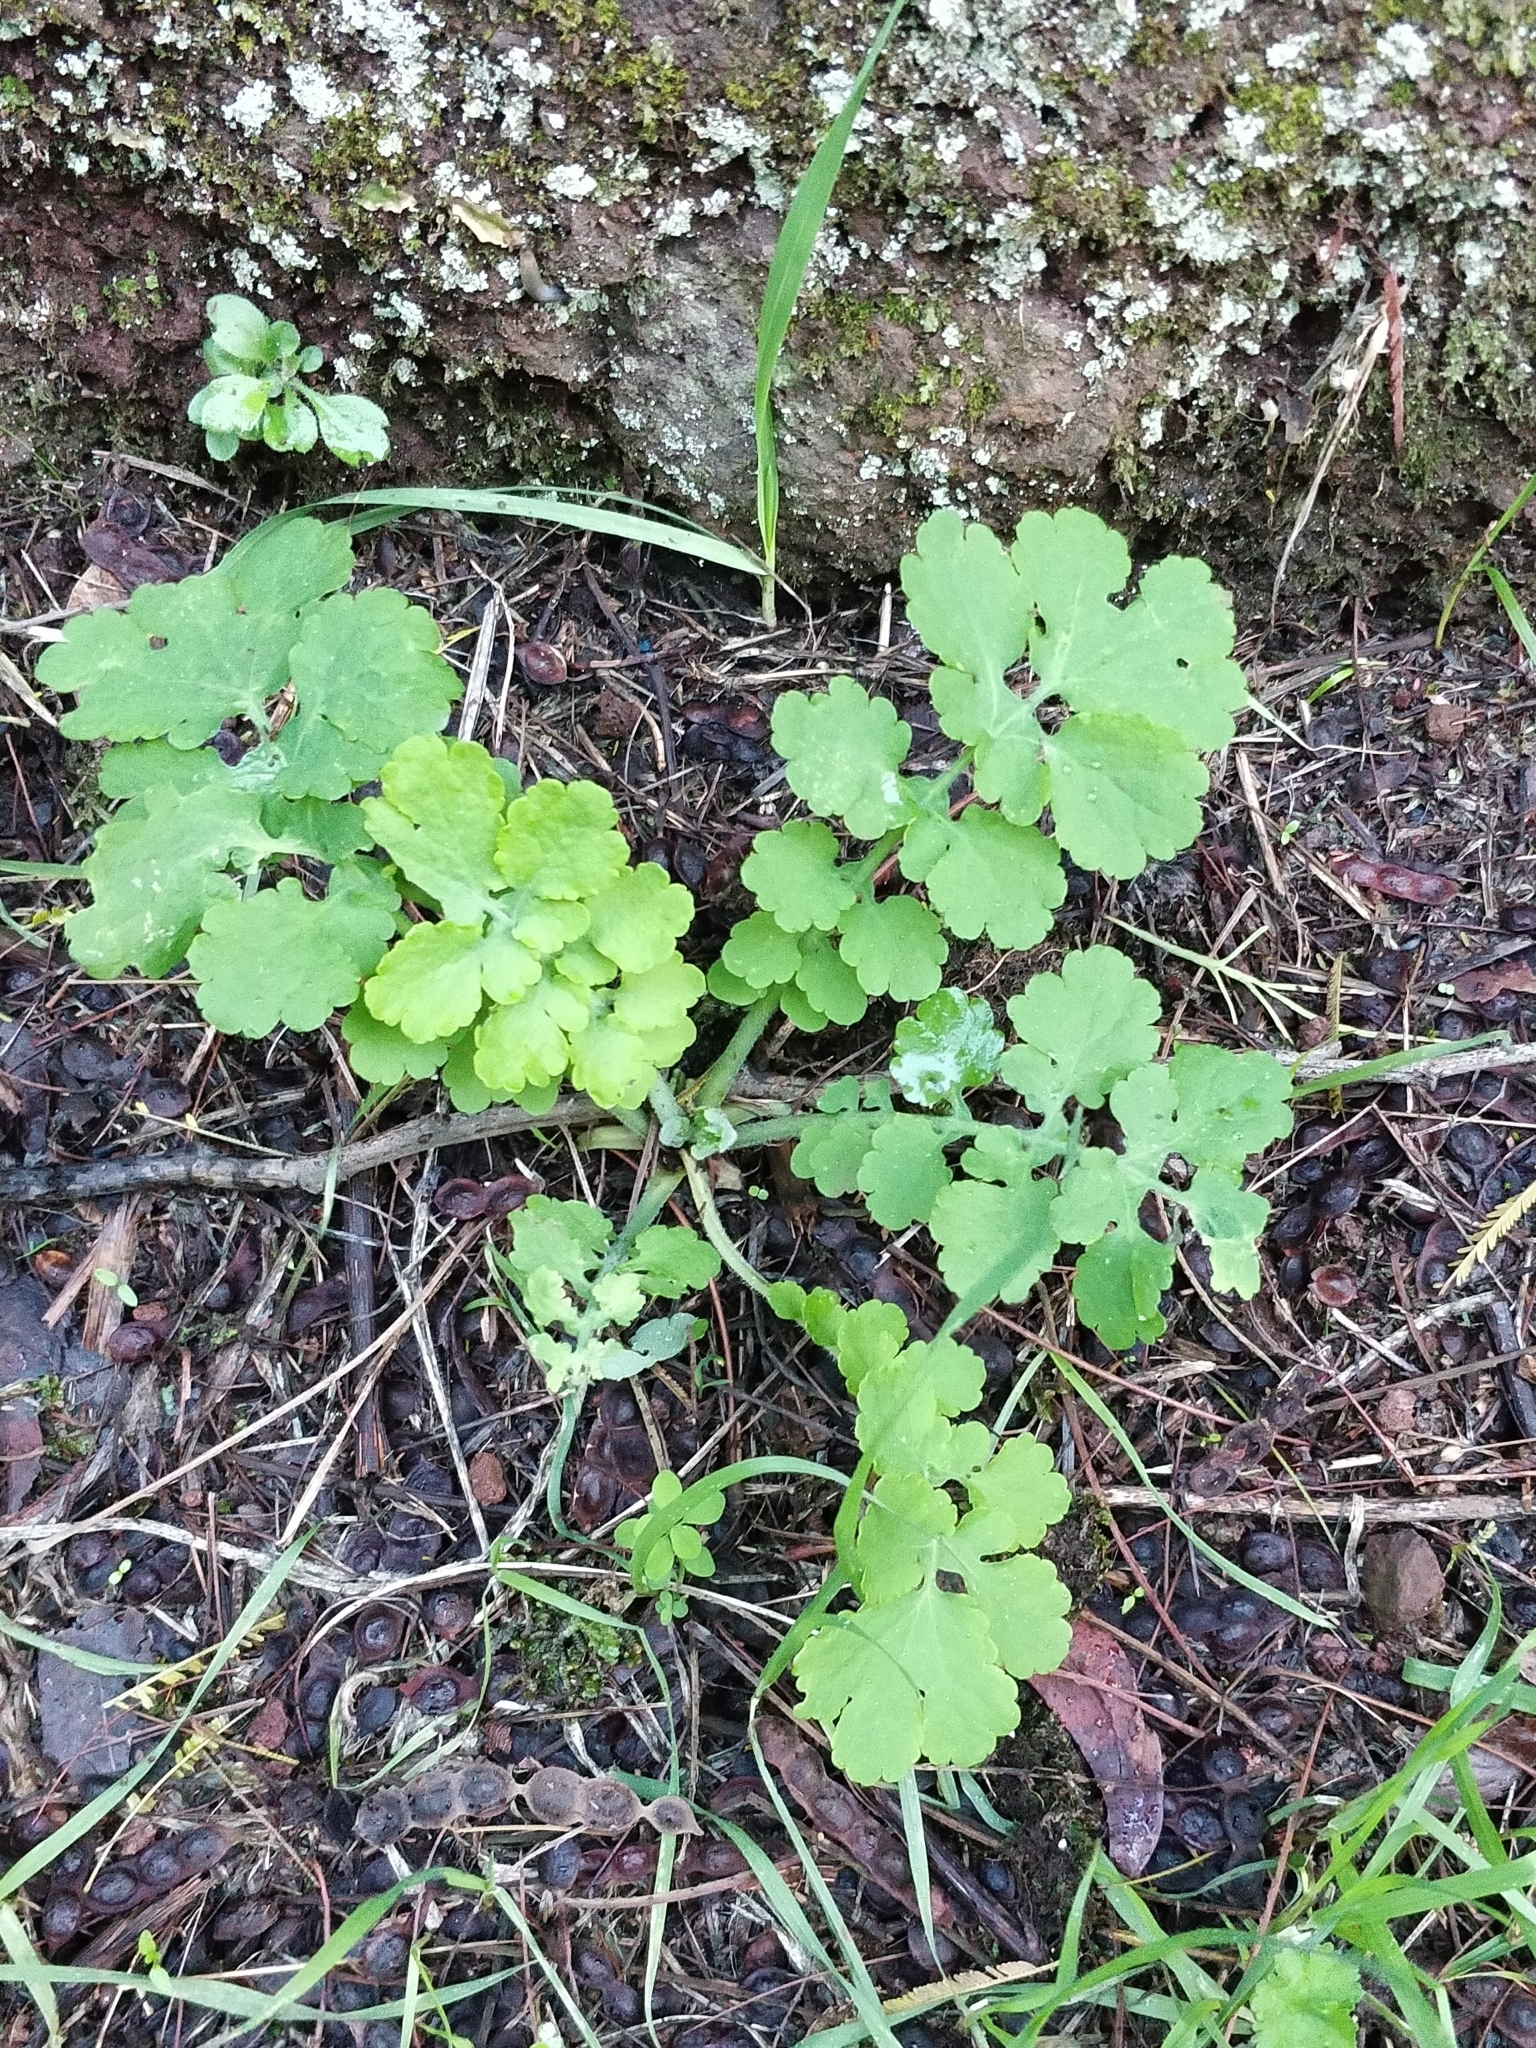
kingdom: Plantae
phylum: Tracheophyta
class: Magnoliopsida
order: Ranunculales
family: Papaveraceae
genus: Chelidonium
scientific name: Chelidonium majus
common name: Greater celandine
